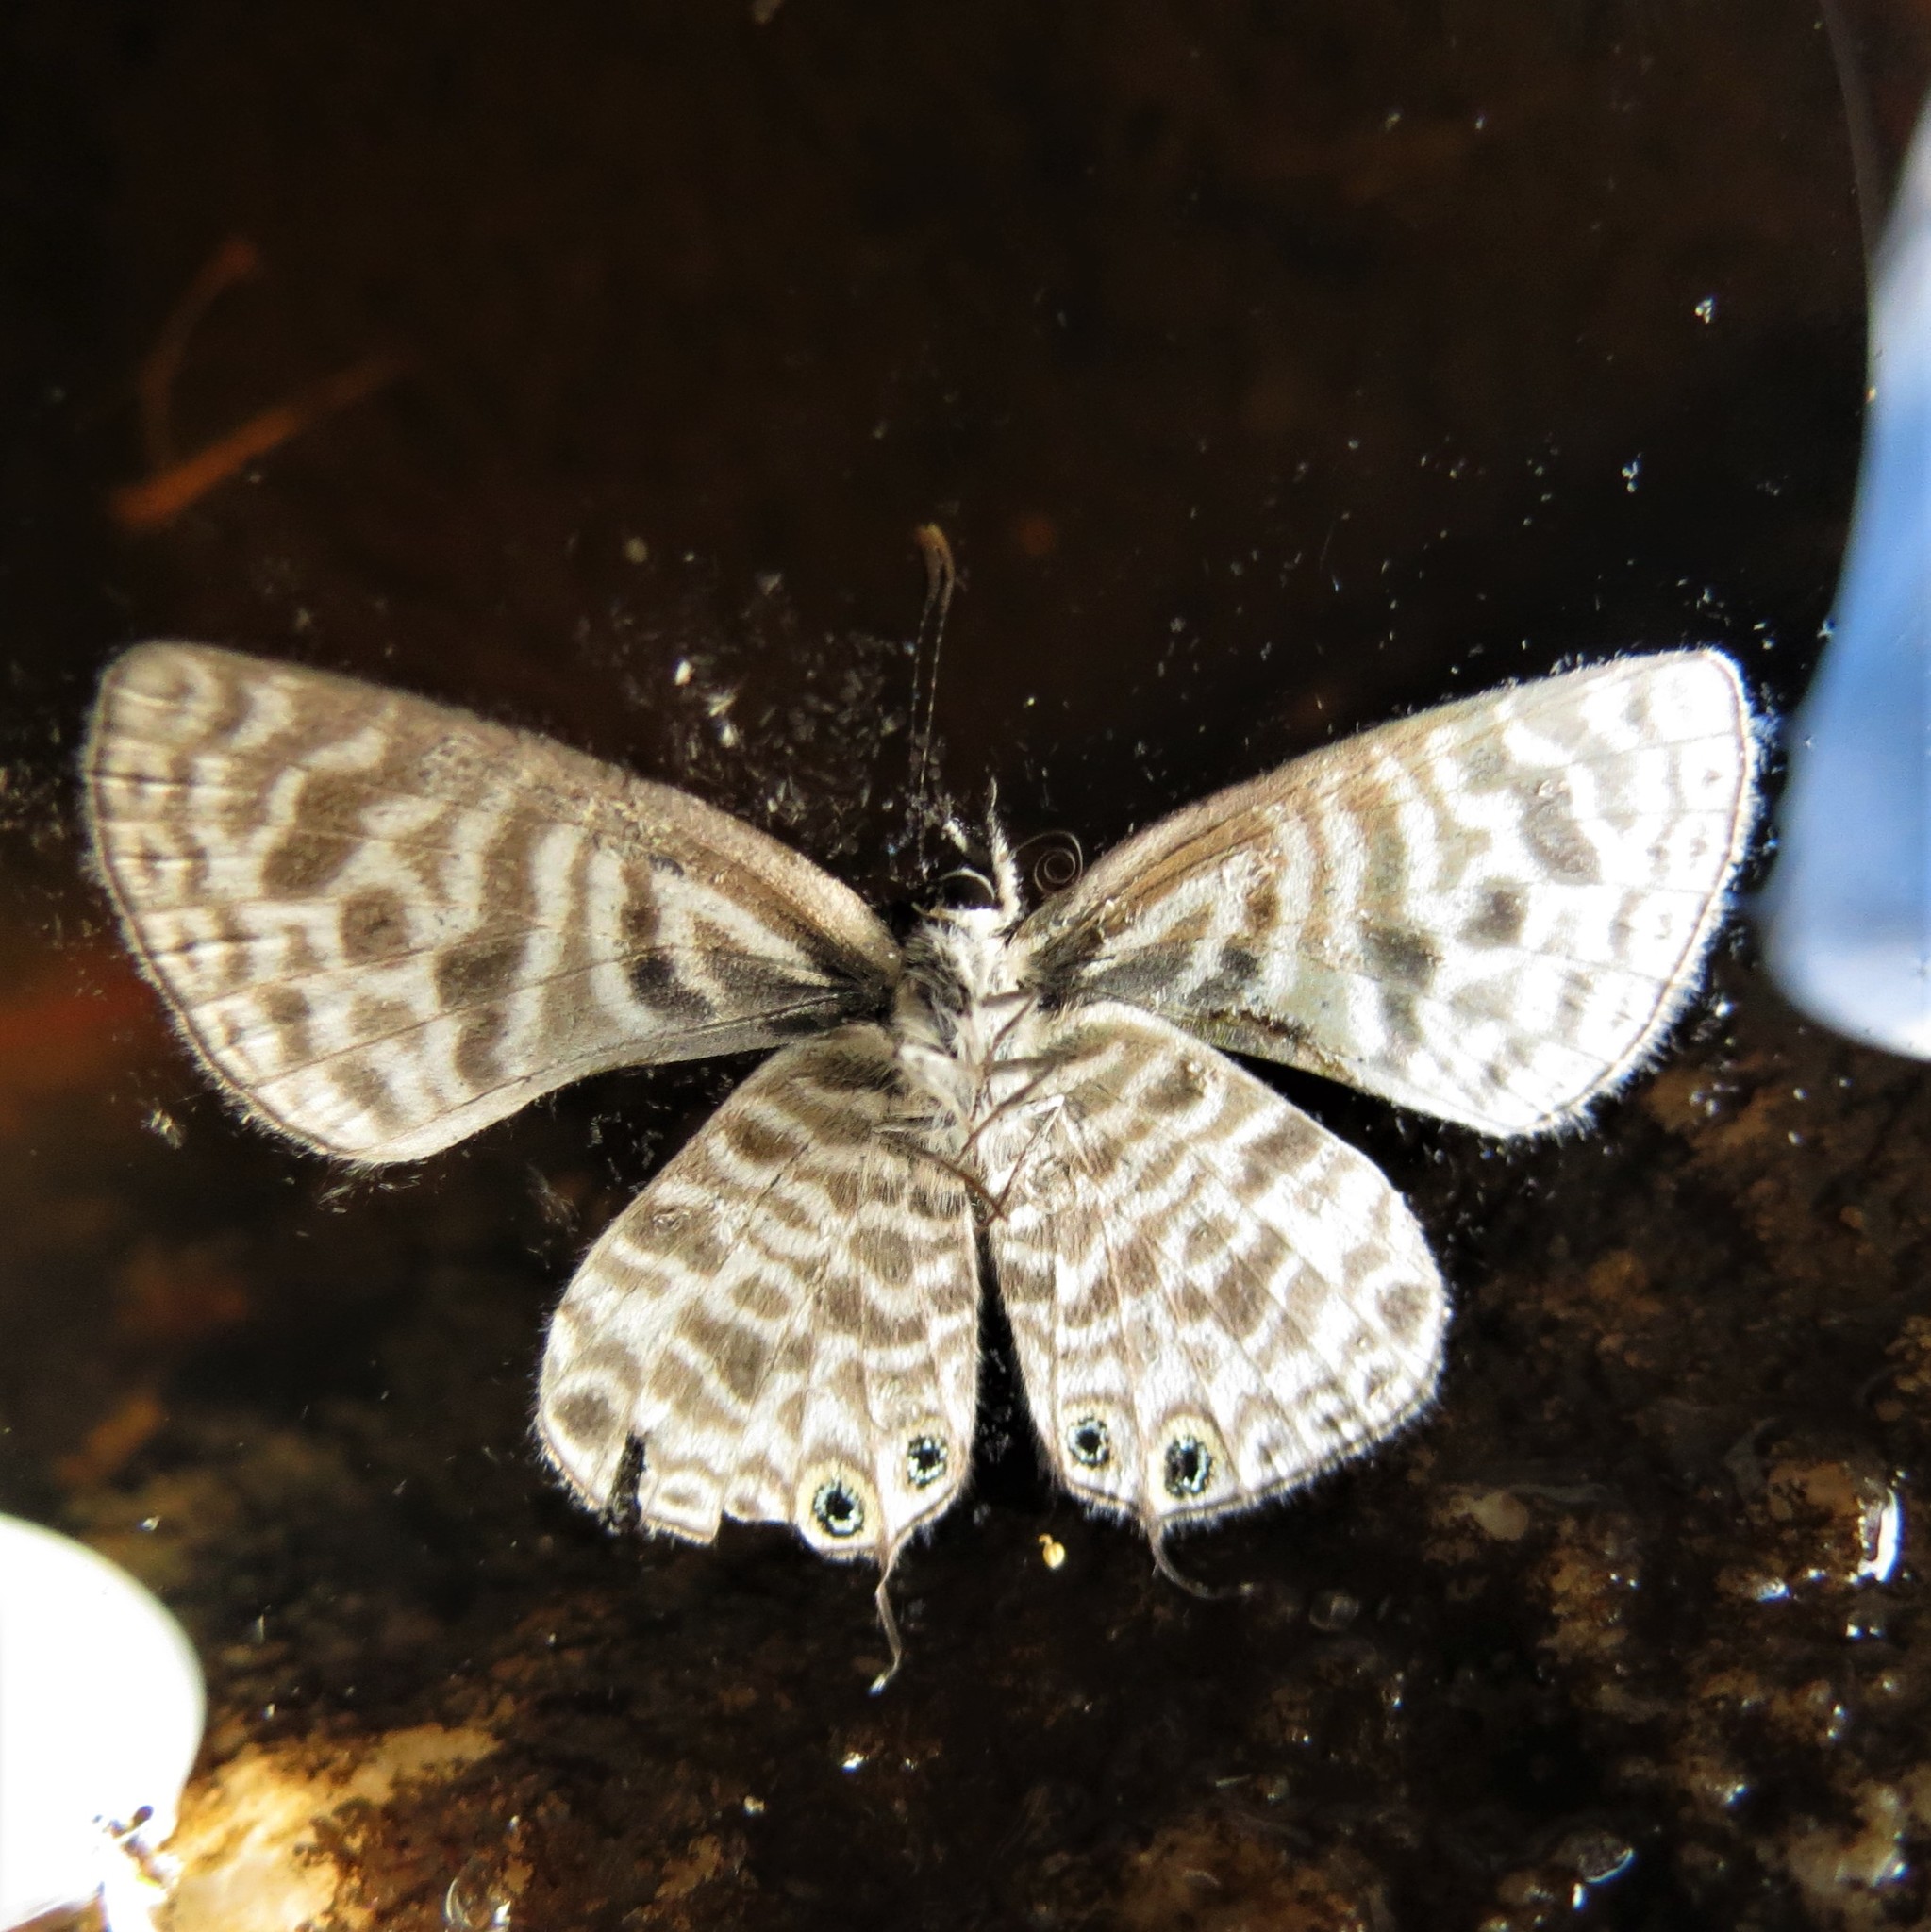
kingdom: Animalia
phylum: Arthropoda
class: Insecta
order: Lepidoptera
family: Lycaenidae
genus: Leptotes
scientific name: Leptotes
